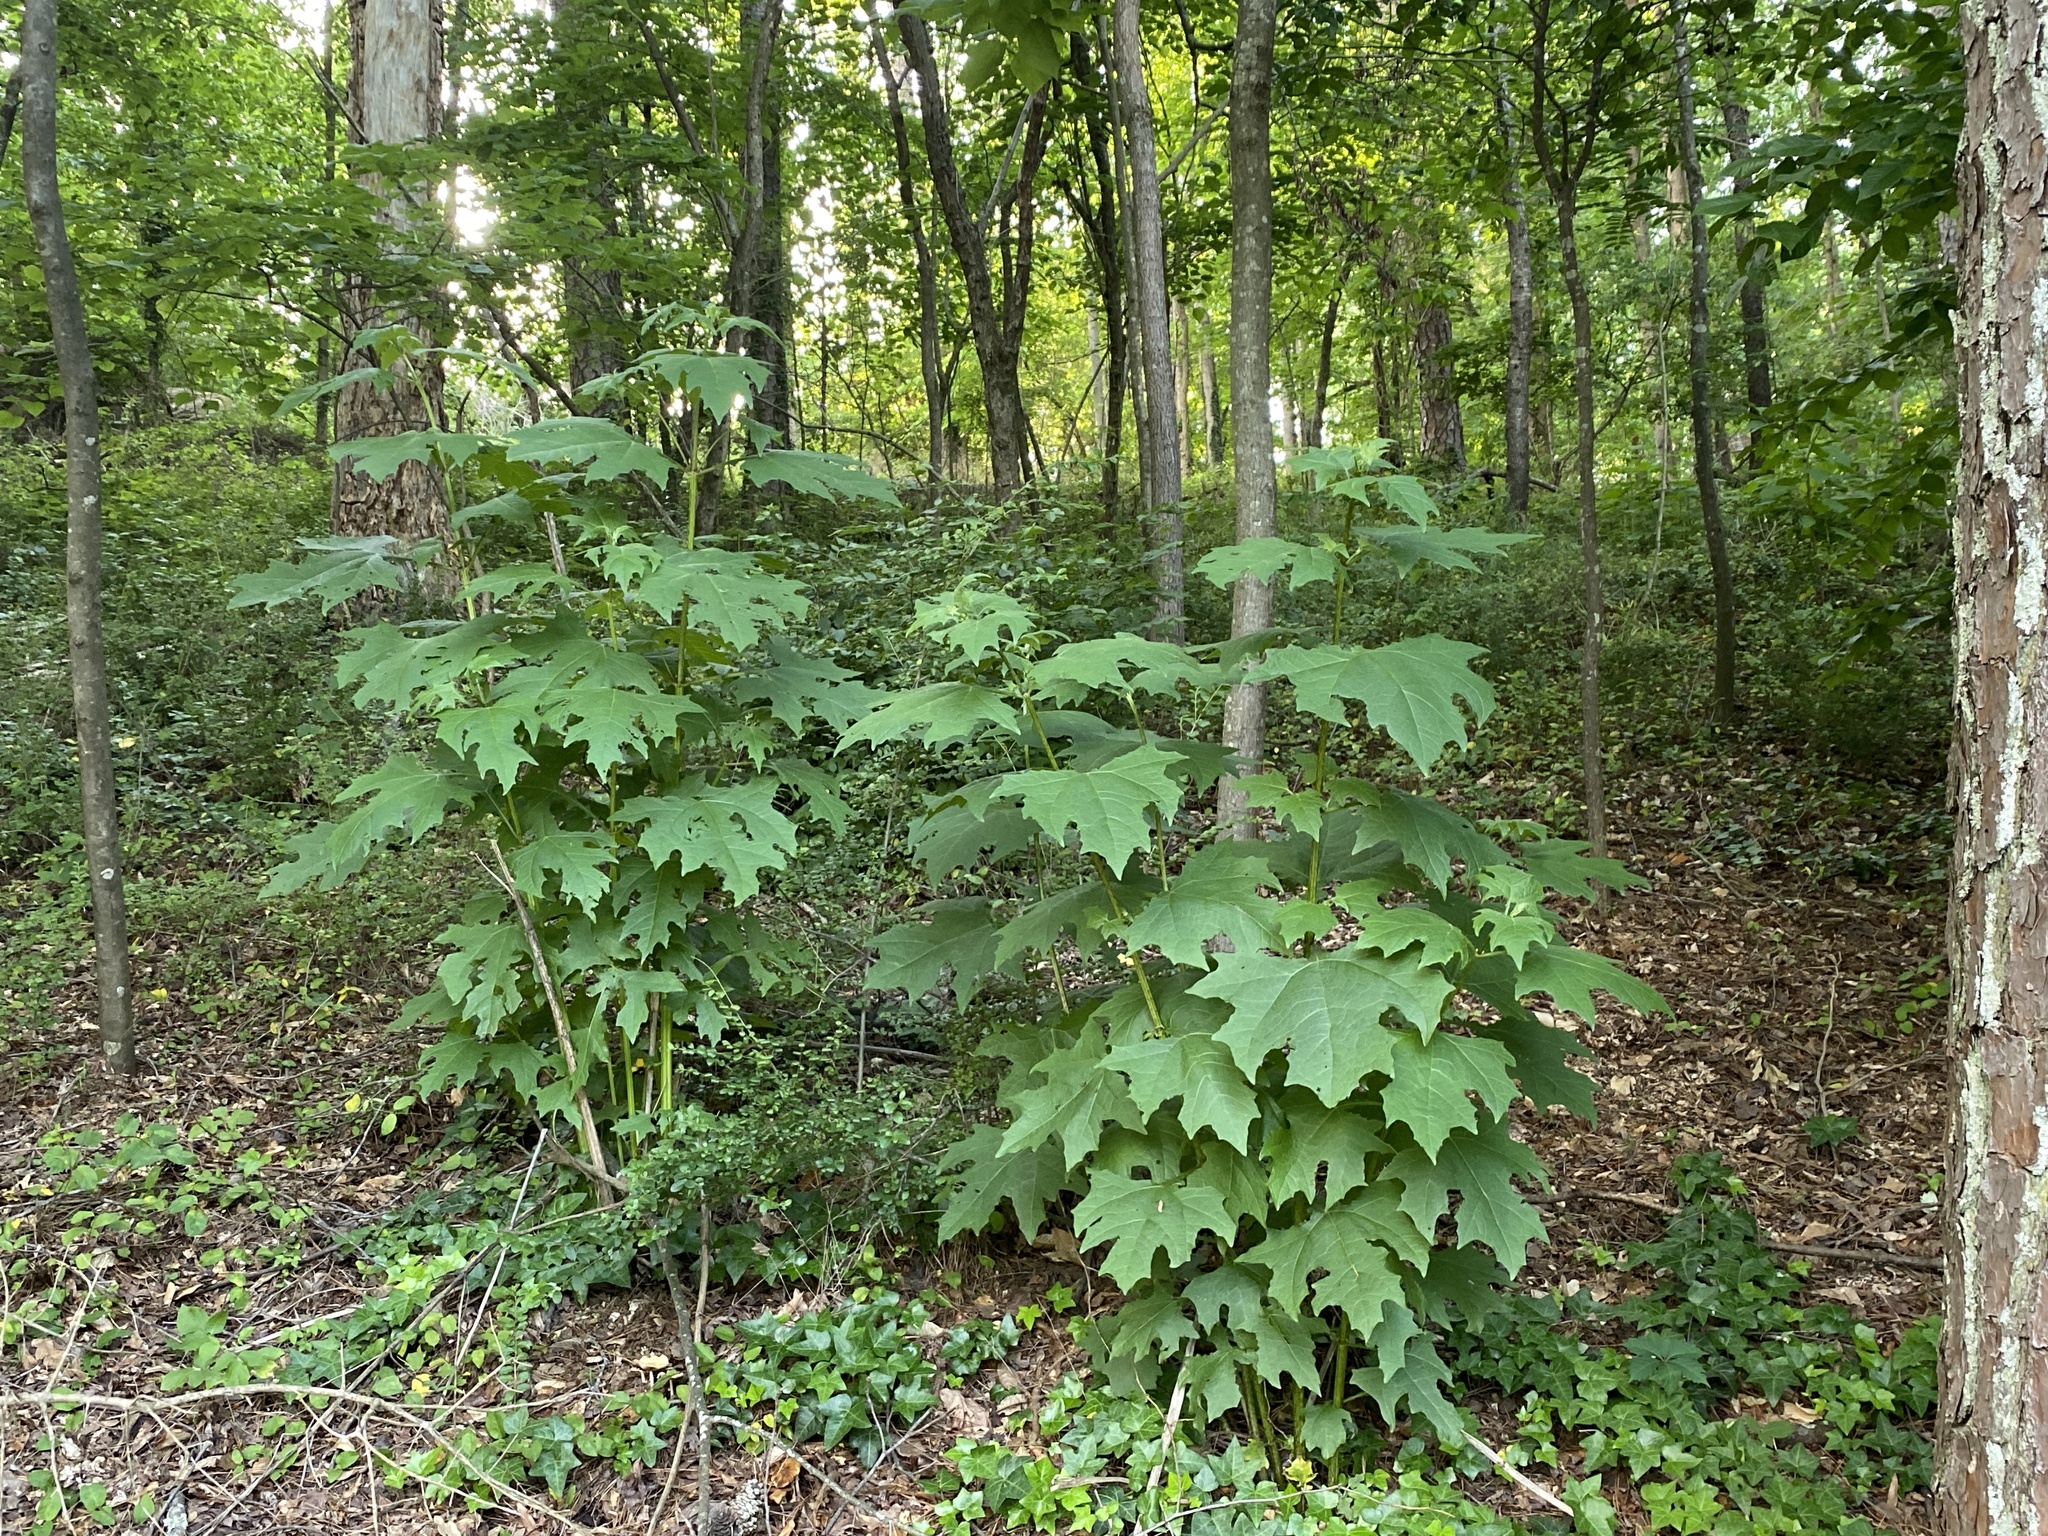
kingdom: Plantae
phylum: Tracheophyta
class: Magnoliopsida
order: Asterales
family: Asteraceae
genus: Smallanthus
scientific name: Smallanthus uvedalia
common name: Bear's-foot
